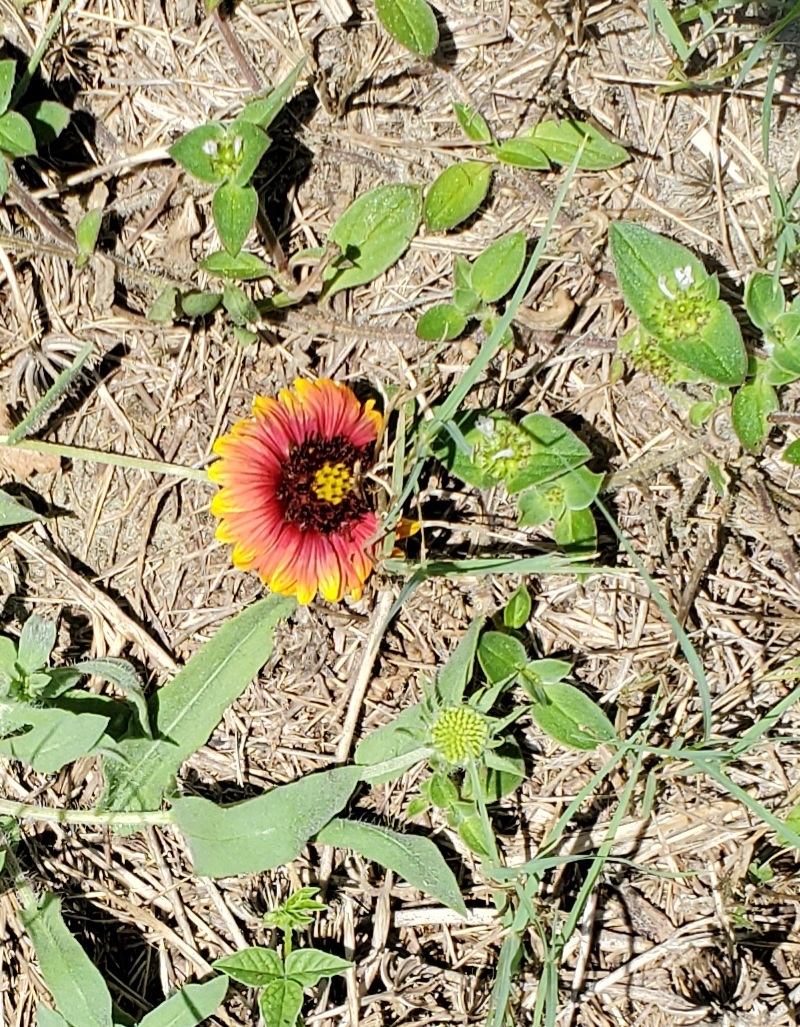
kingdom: Plantae
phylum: Tracheophyta
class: Magnoliopsida
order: Asterales
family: Asteraceae
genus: Gaillardia
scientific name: Gaillardia pulchella
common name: Firewheel
